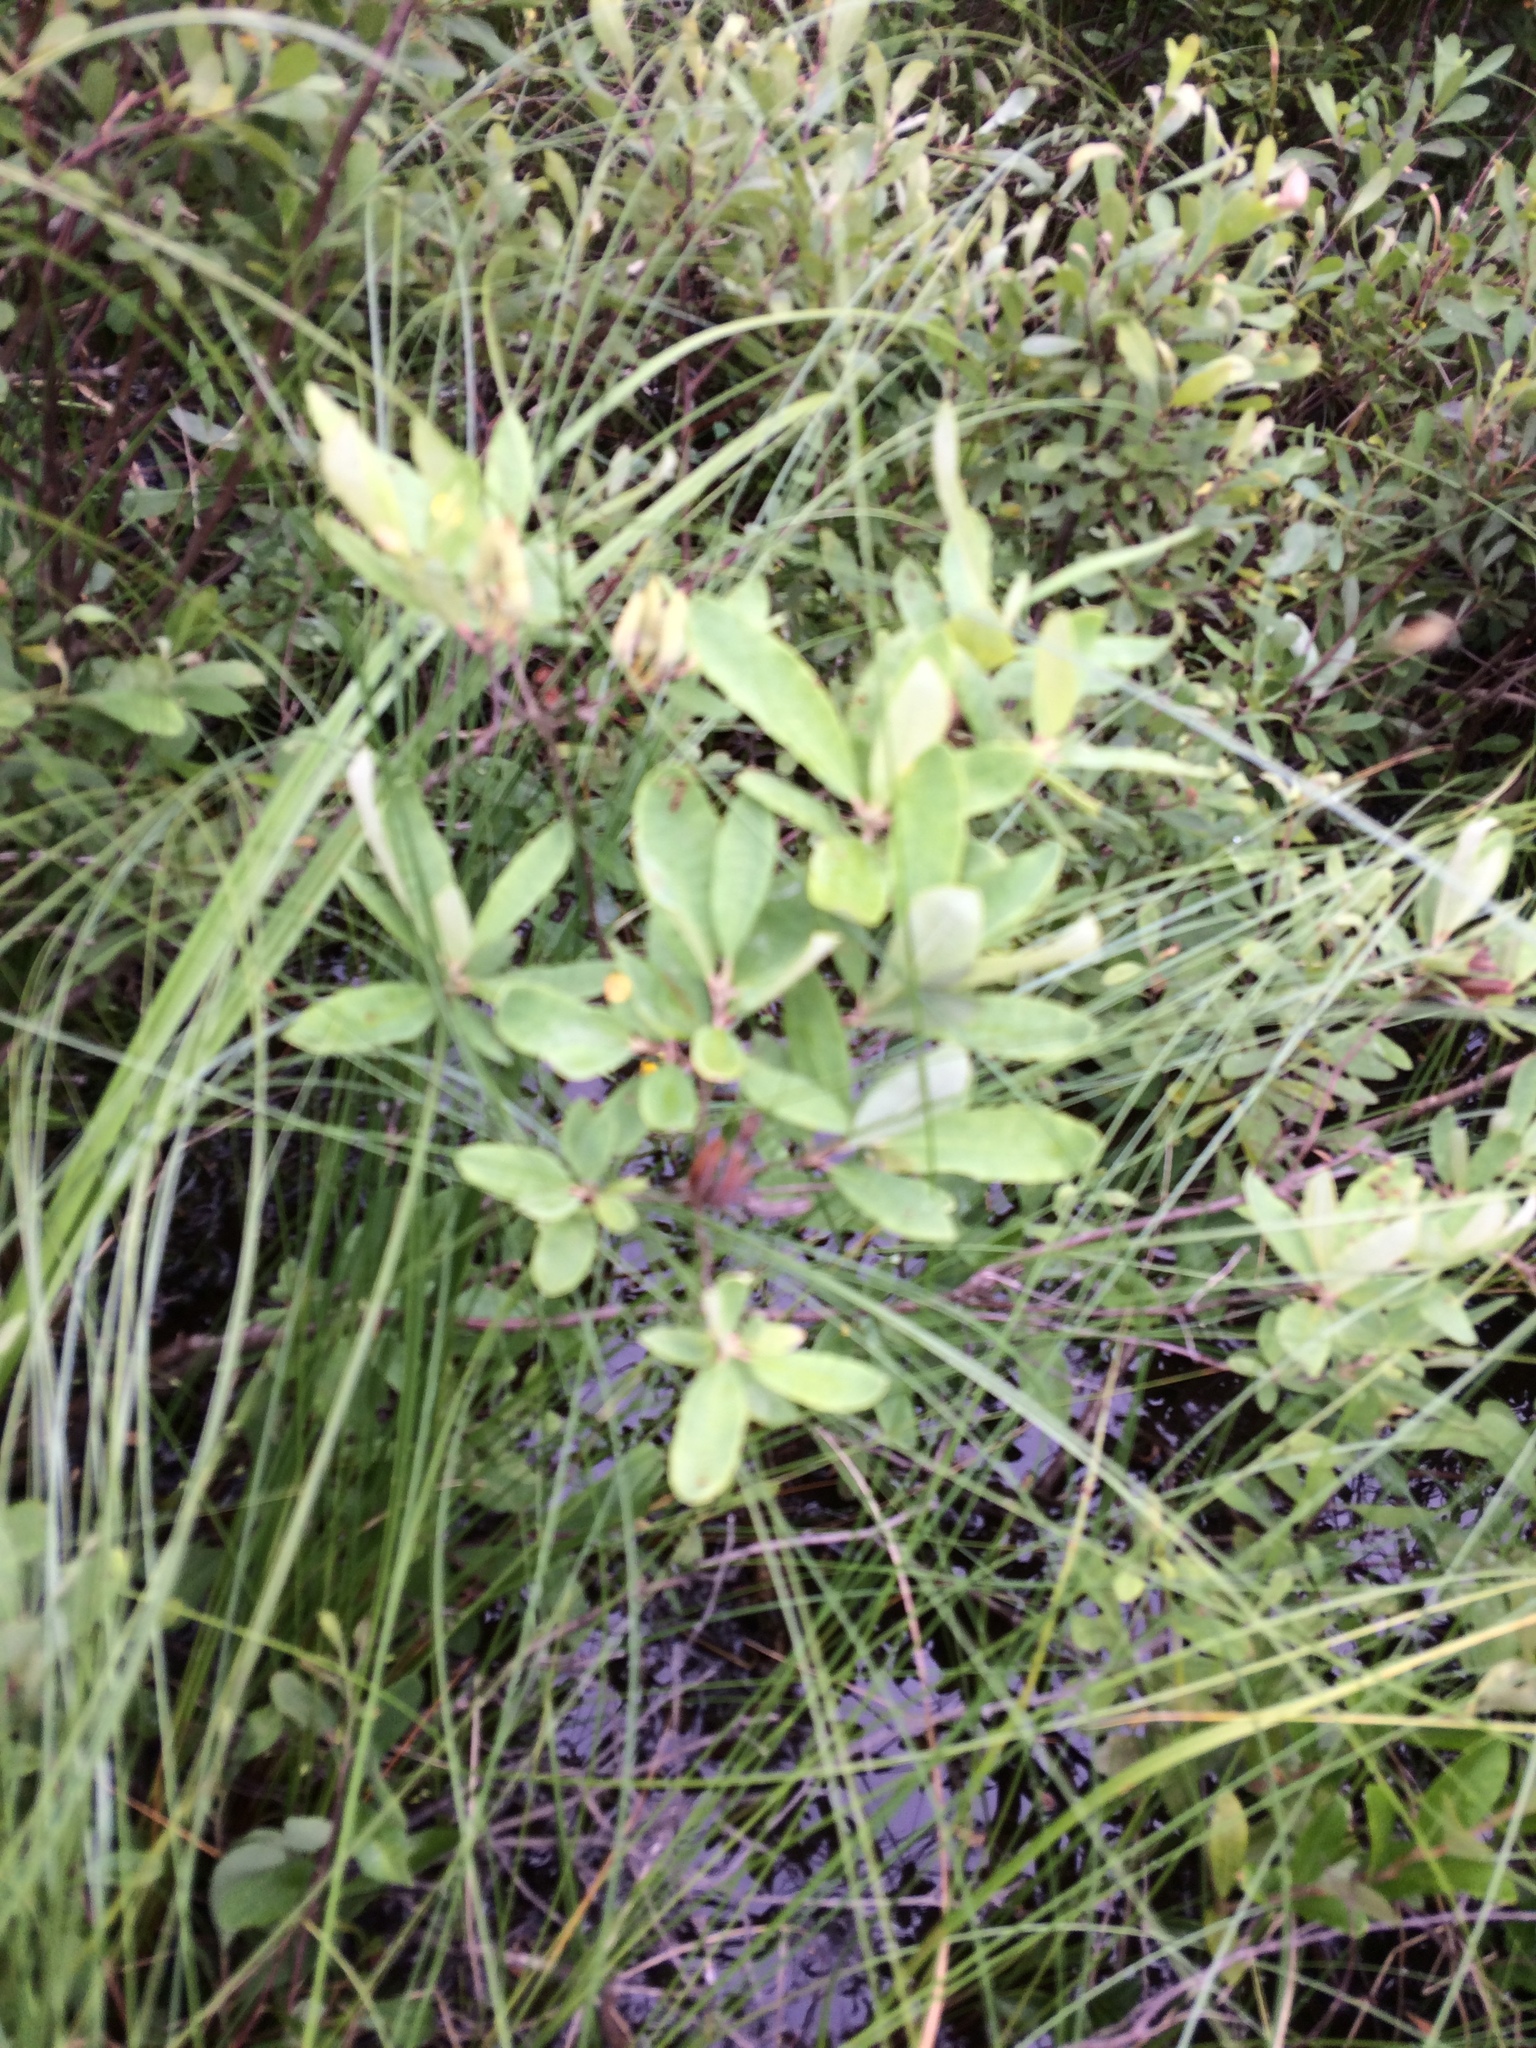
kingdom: Plantae
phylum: Tracheophyta
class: Magnoliopsida
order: Ericales
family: Ericaceae
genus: Rhododendron
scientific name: Rhododendron canadense
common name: Rhodora
